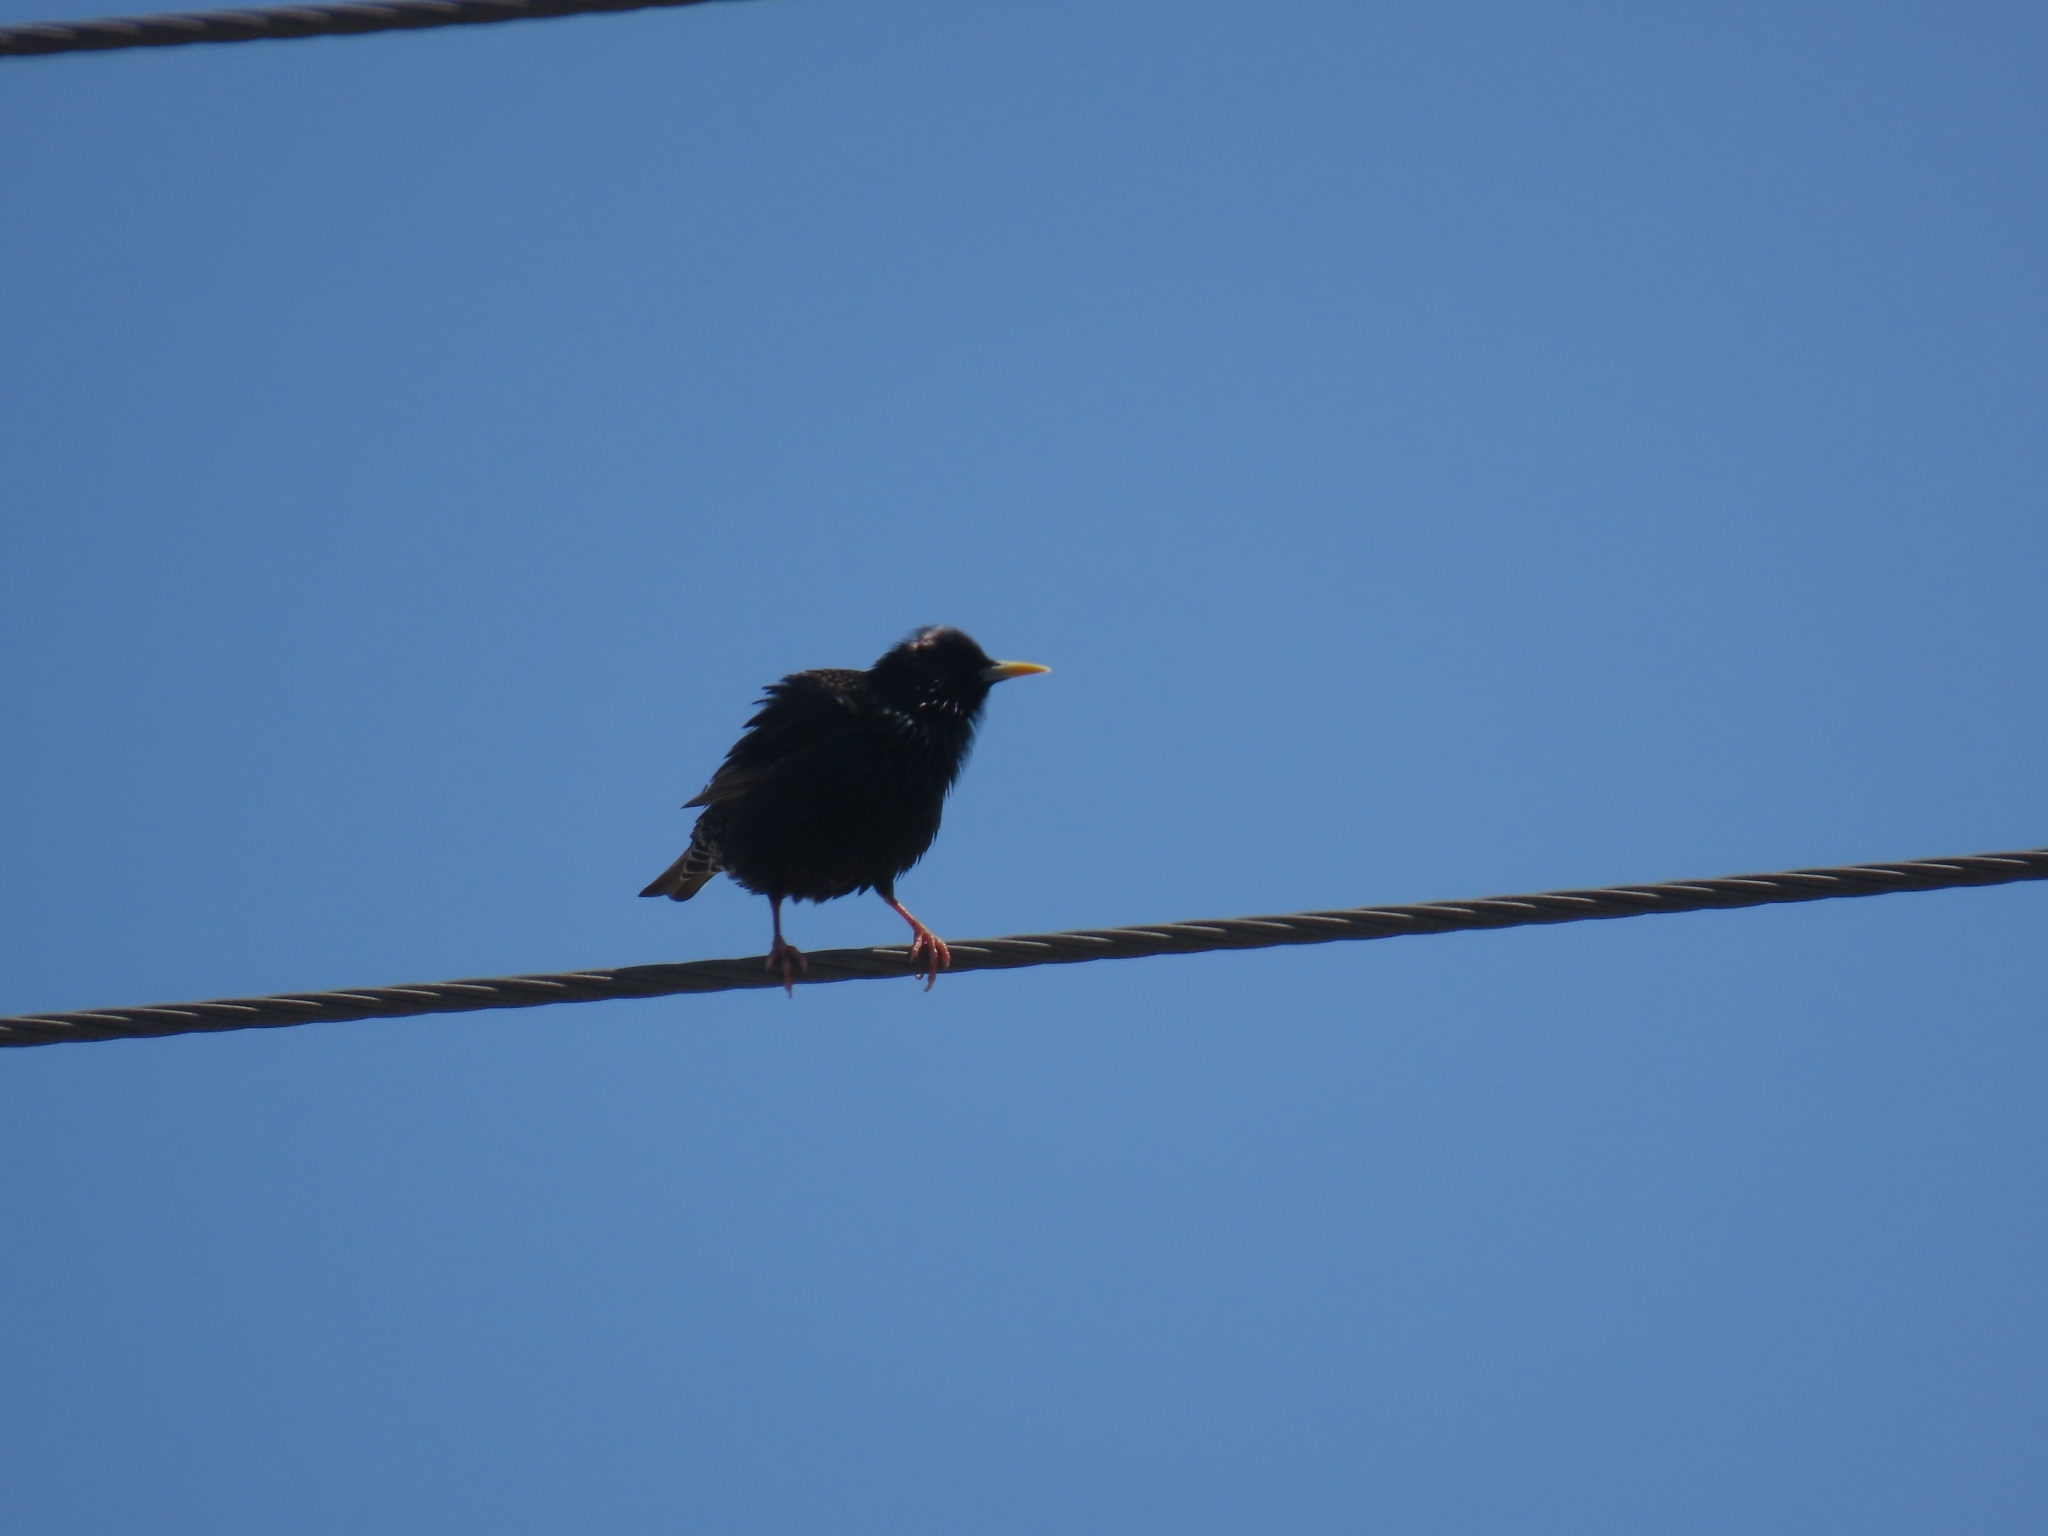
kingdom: Animalia
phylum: Chordata
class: Aves
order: Passeriformes
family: Sturnidae
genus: Sturnus
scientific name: Sturnus vulgaris
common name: Common starling
